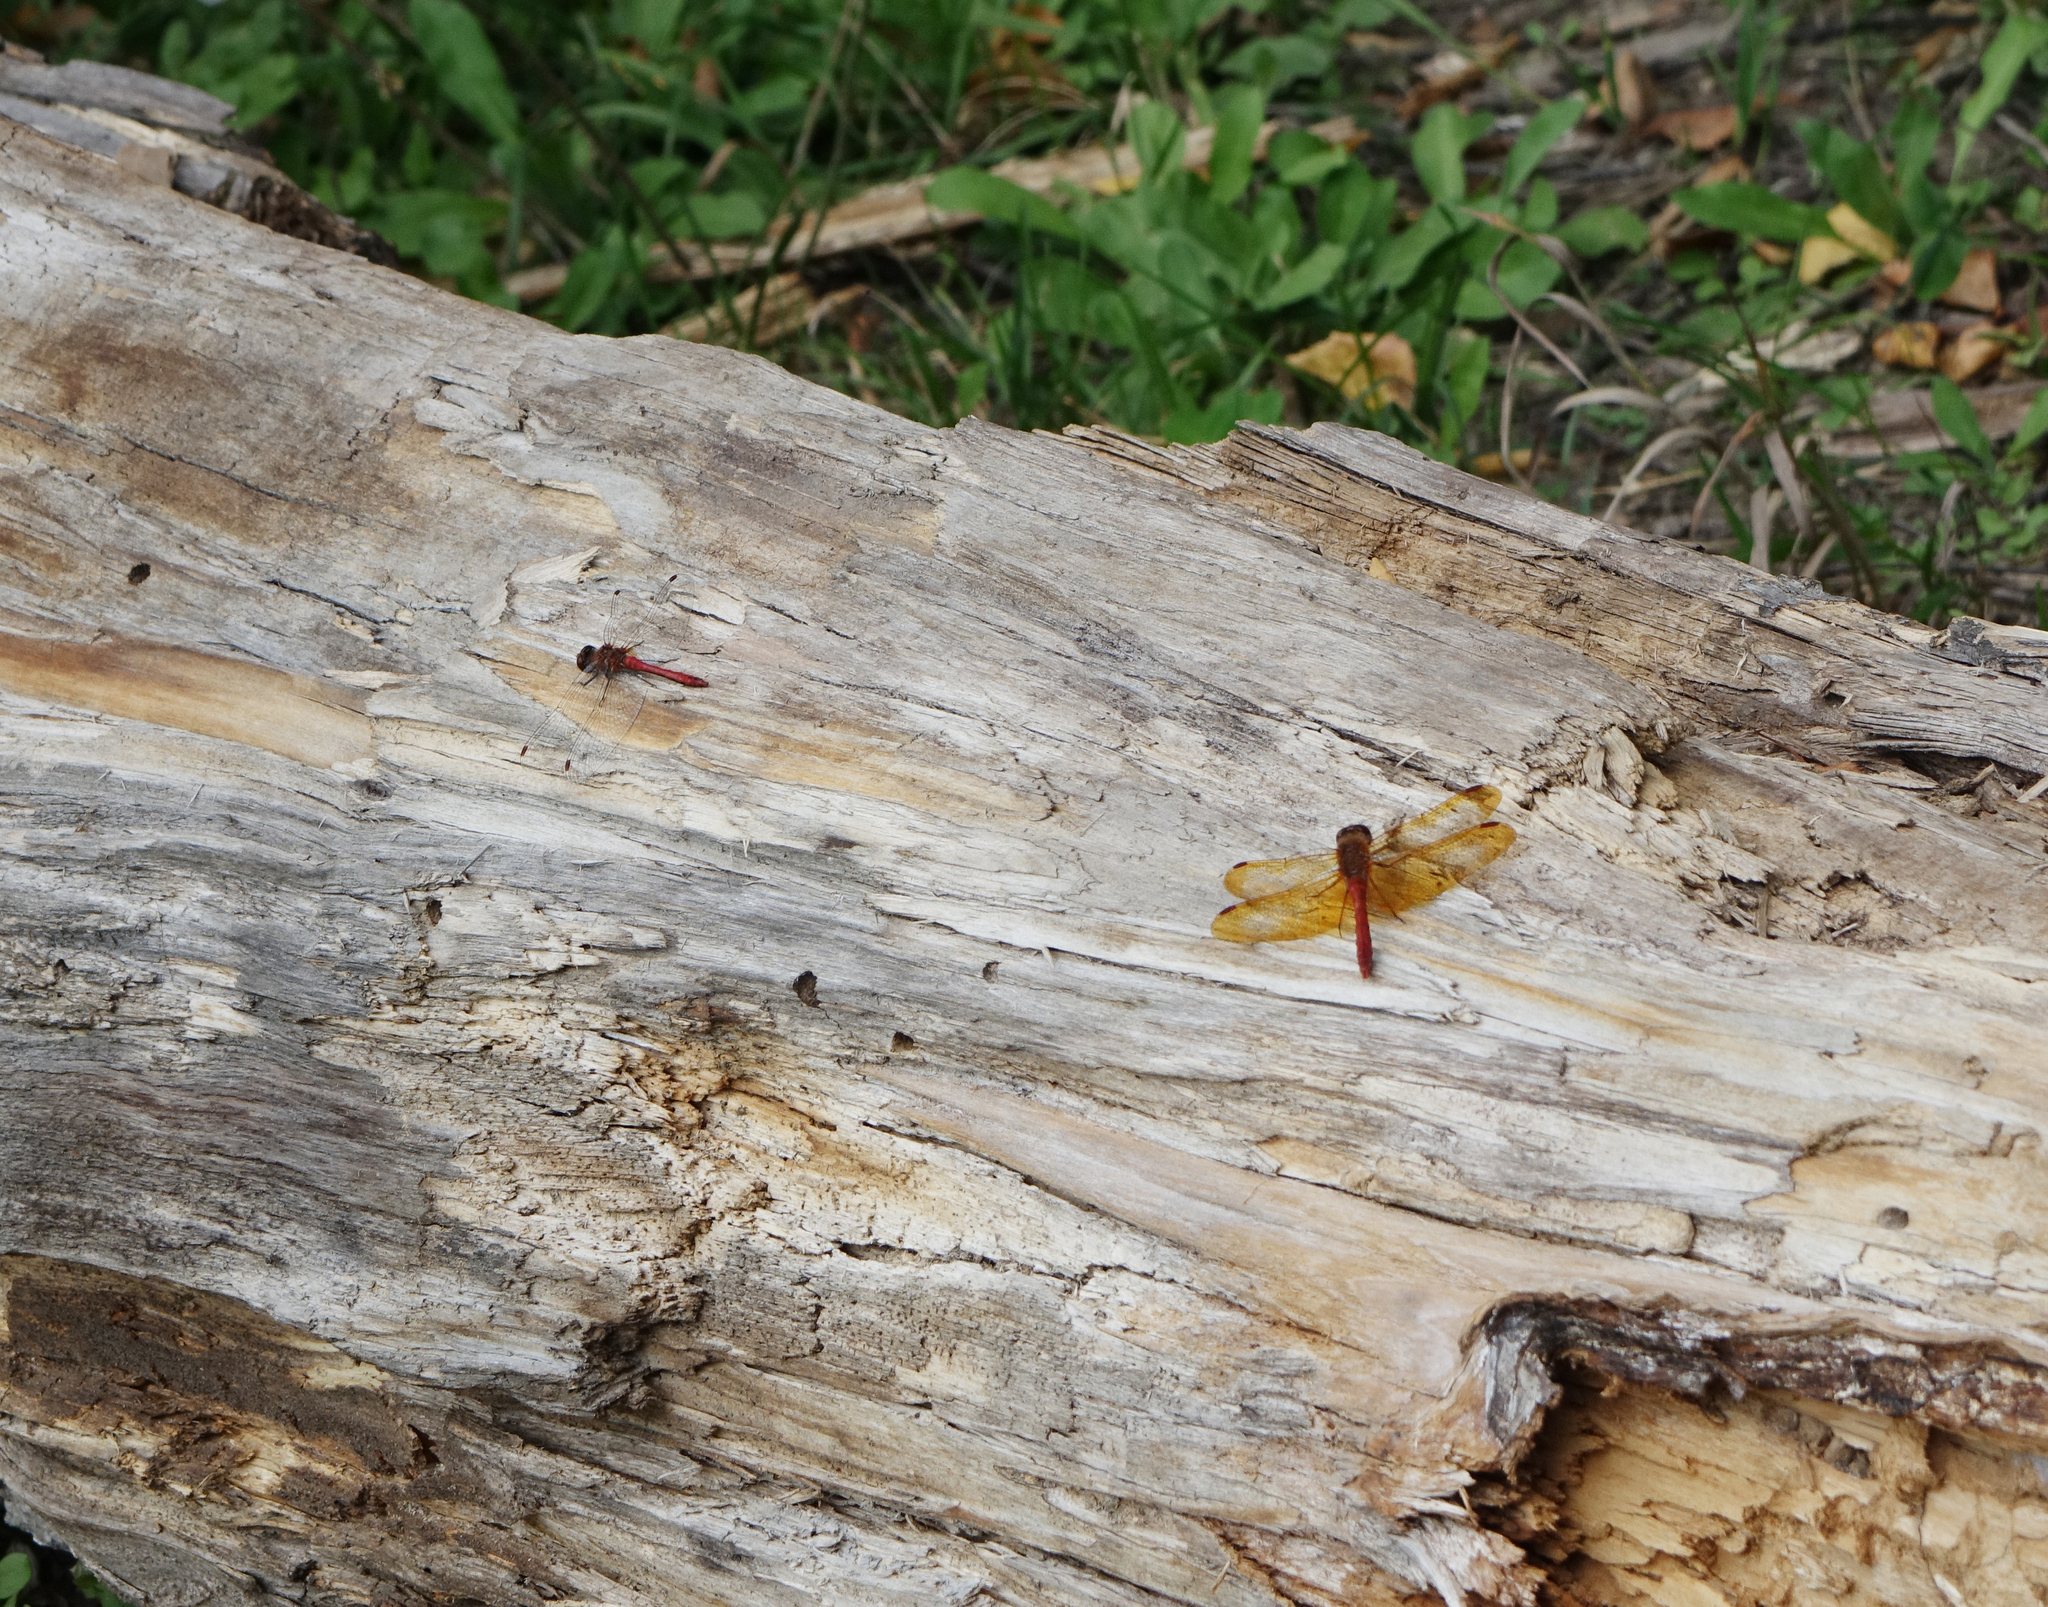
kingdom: Animalia
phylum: Arthropoda
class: Insecta
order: Odonata
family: Libellulidae
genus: Sympetrum
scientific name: Sympetrum croceolum
